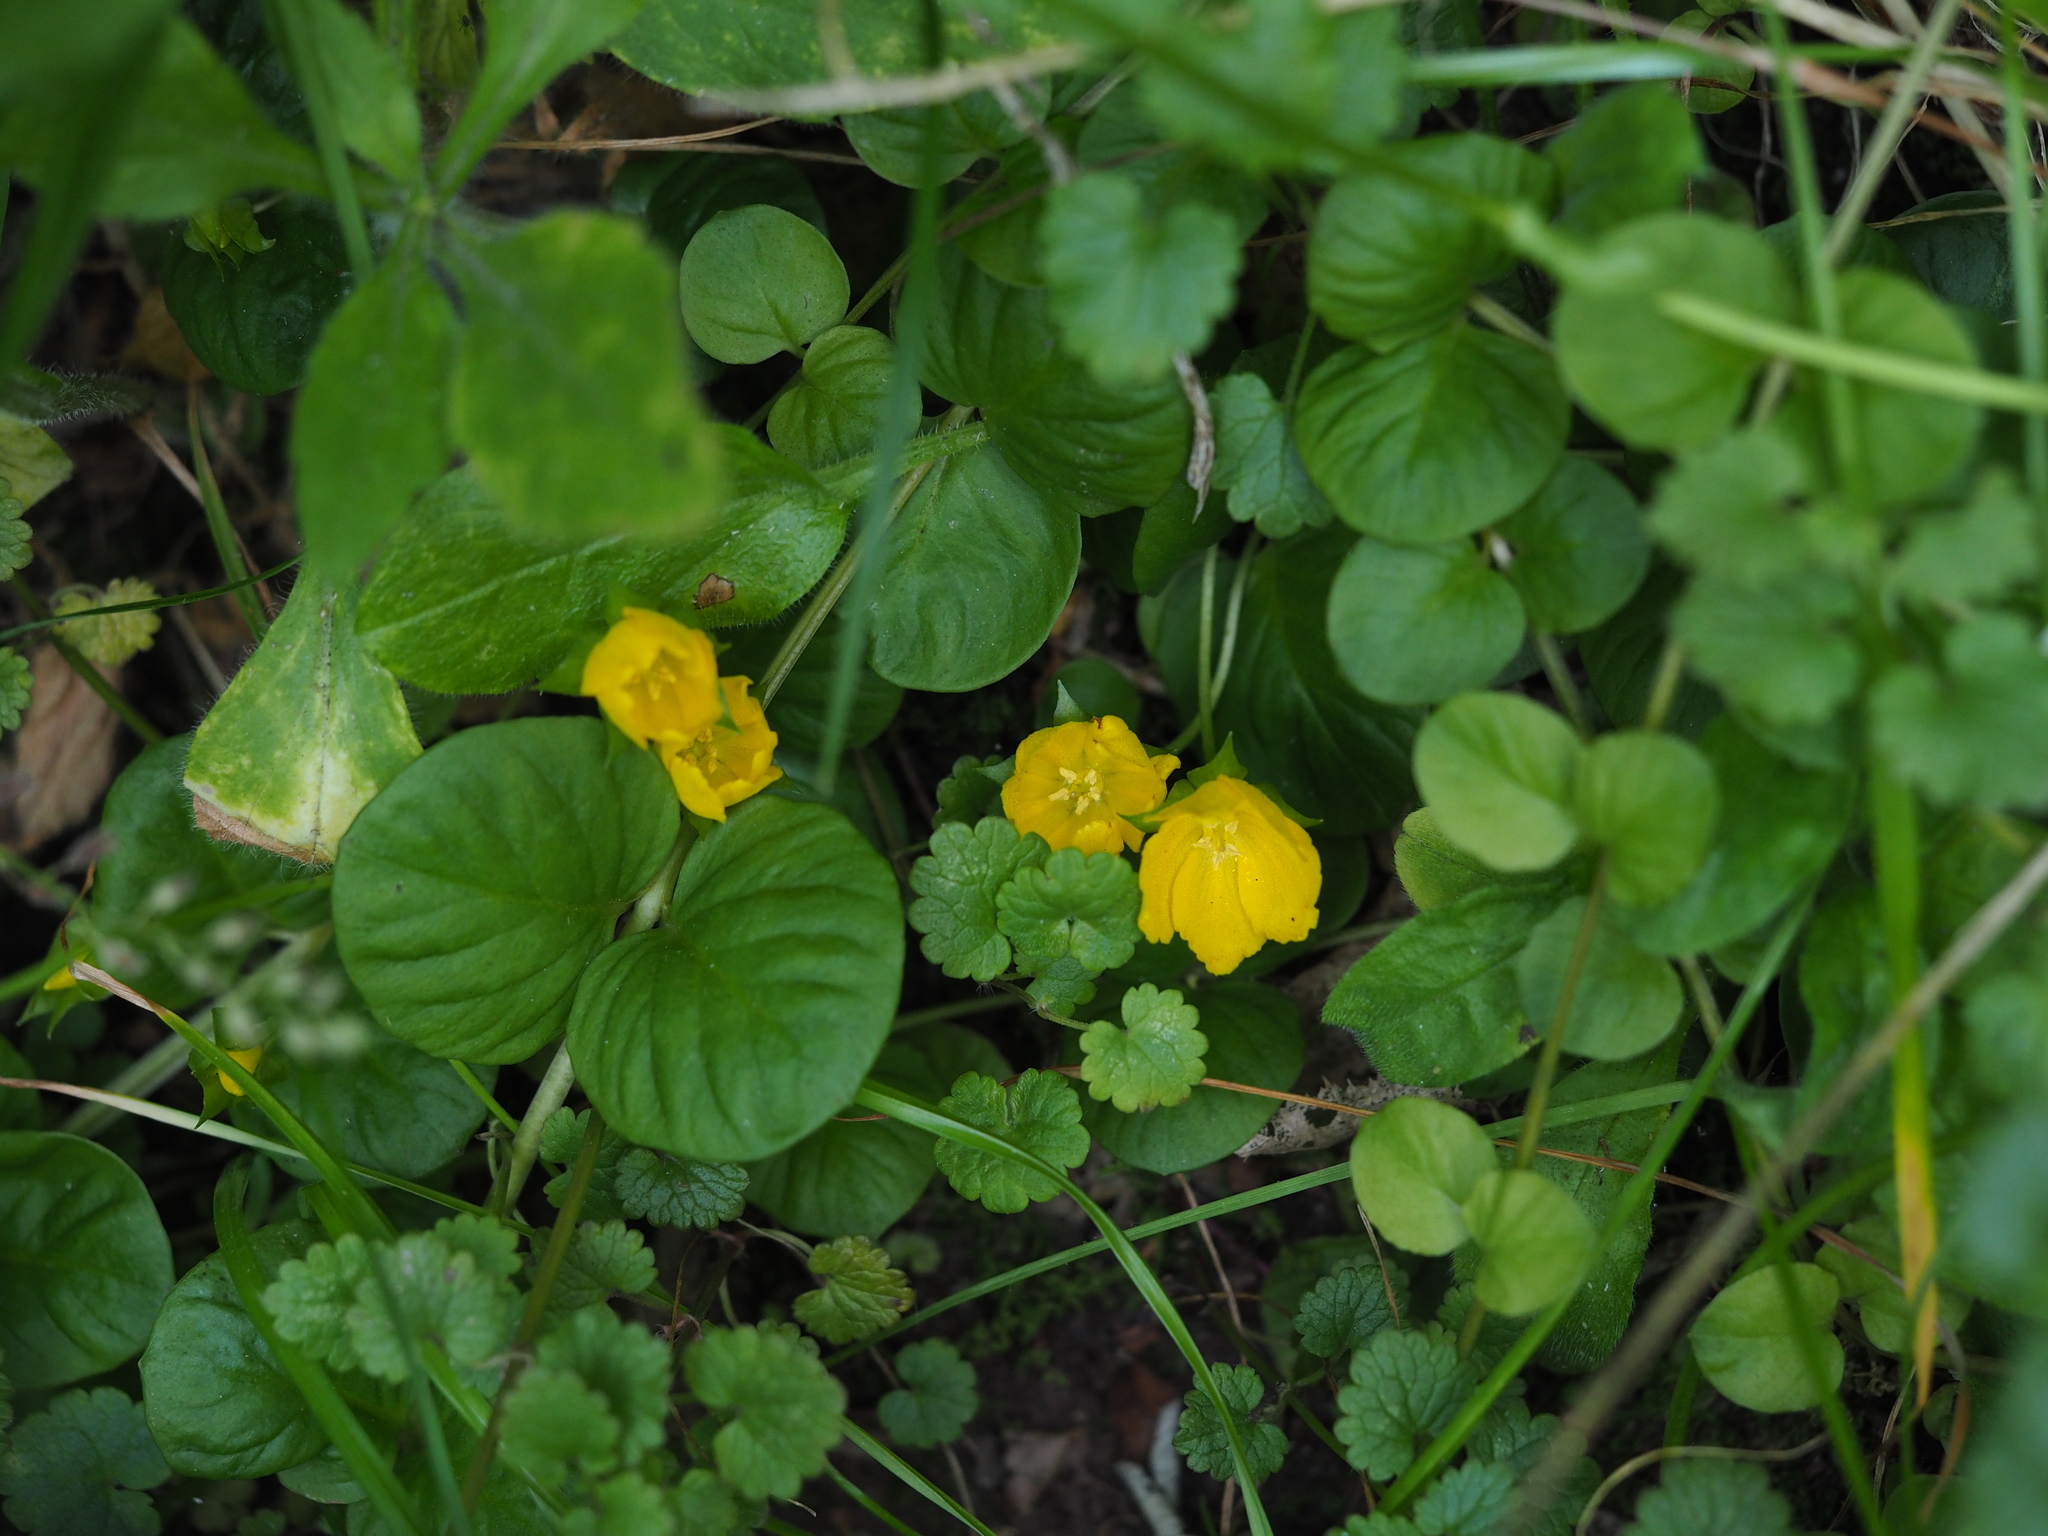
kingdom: Plantae
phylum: Tracheophyta
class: Magnoliopsida
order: Ericales
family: Primulaceae
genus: Lysimachia
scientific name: Lysimachia nummularia
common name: Moneywort
